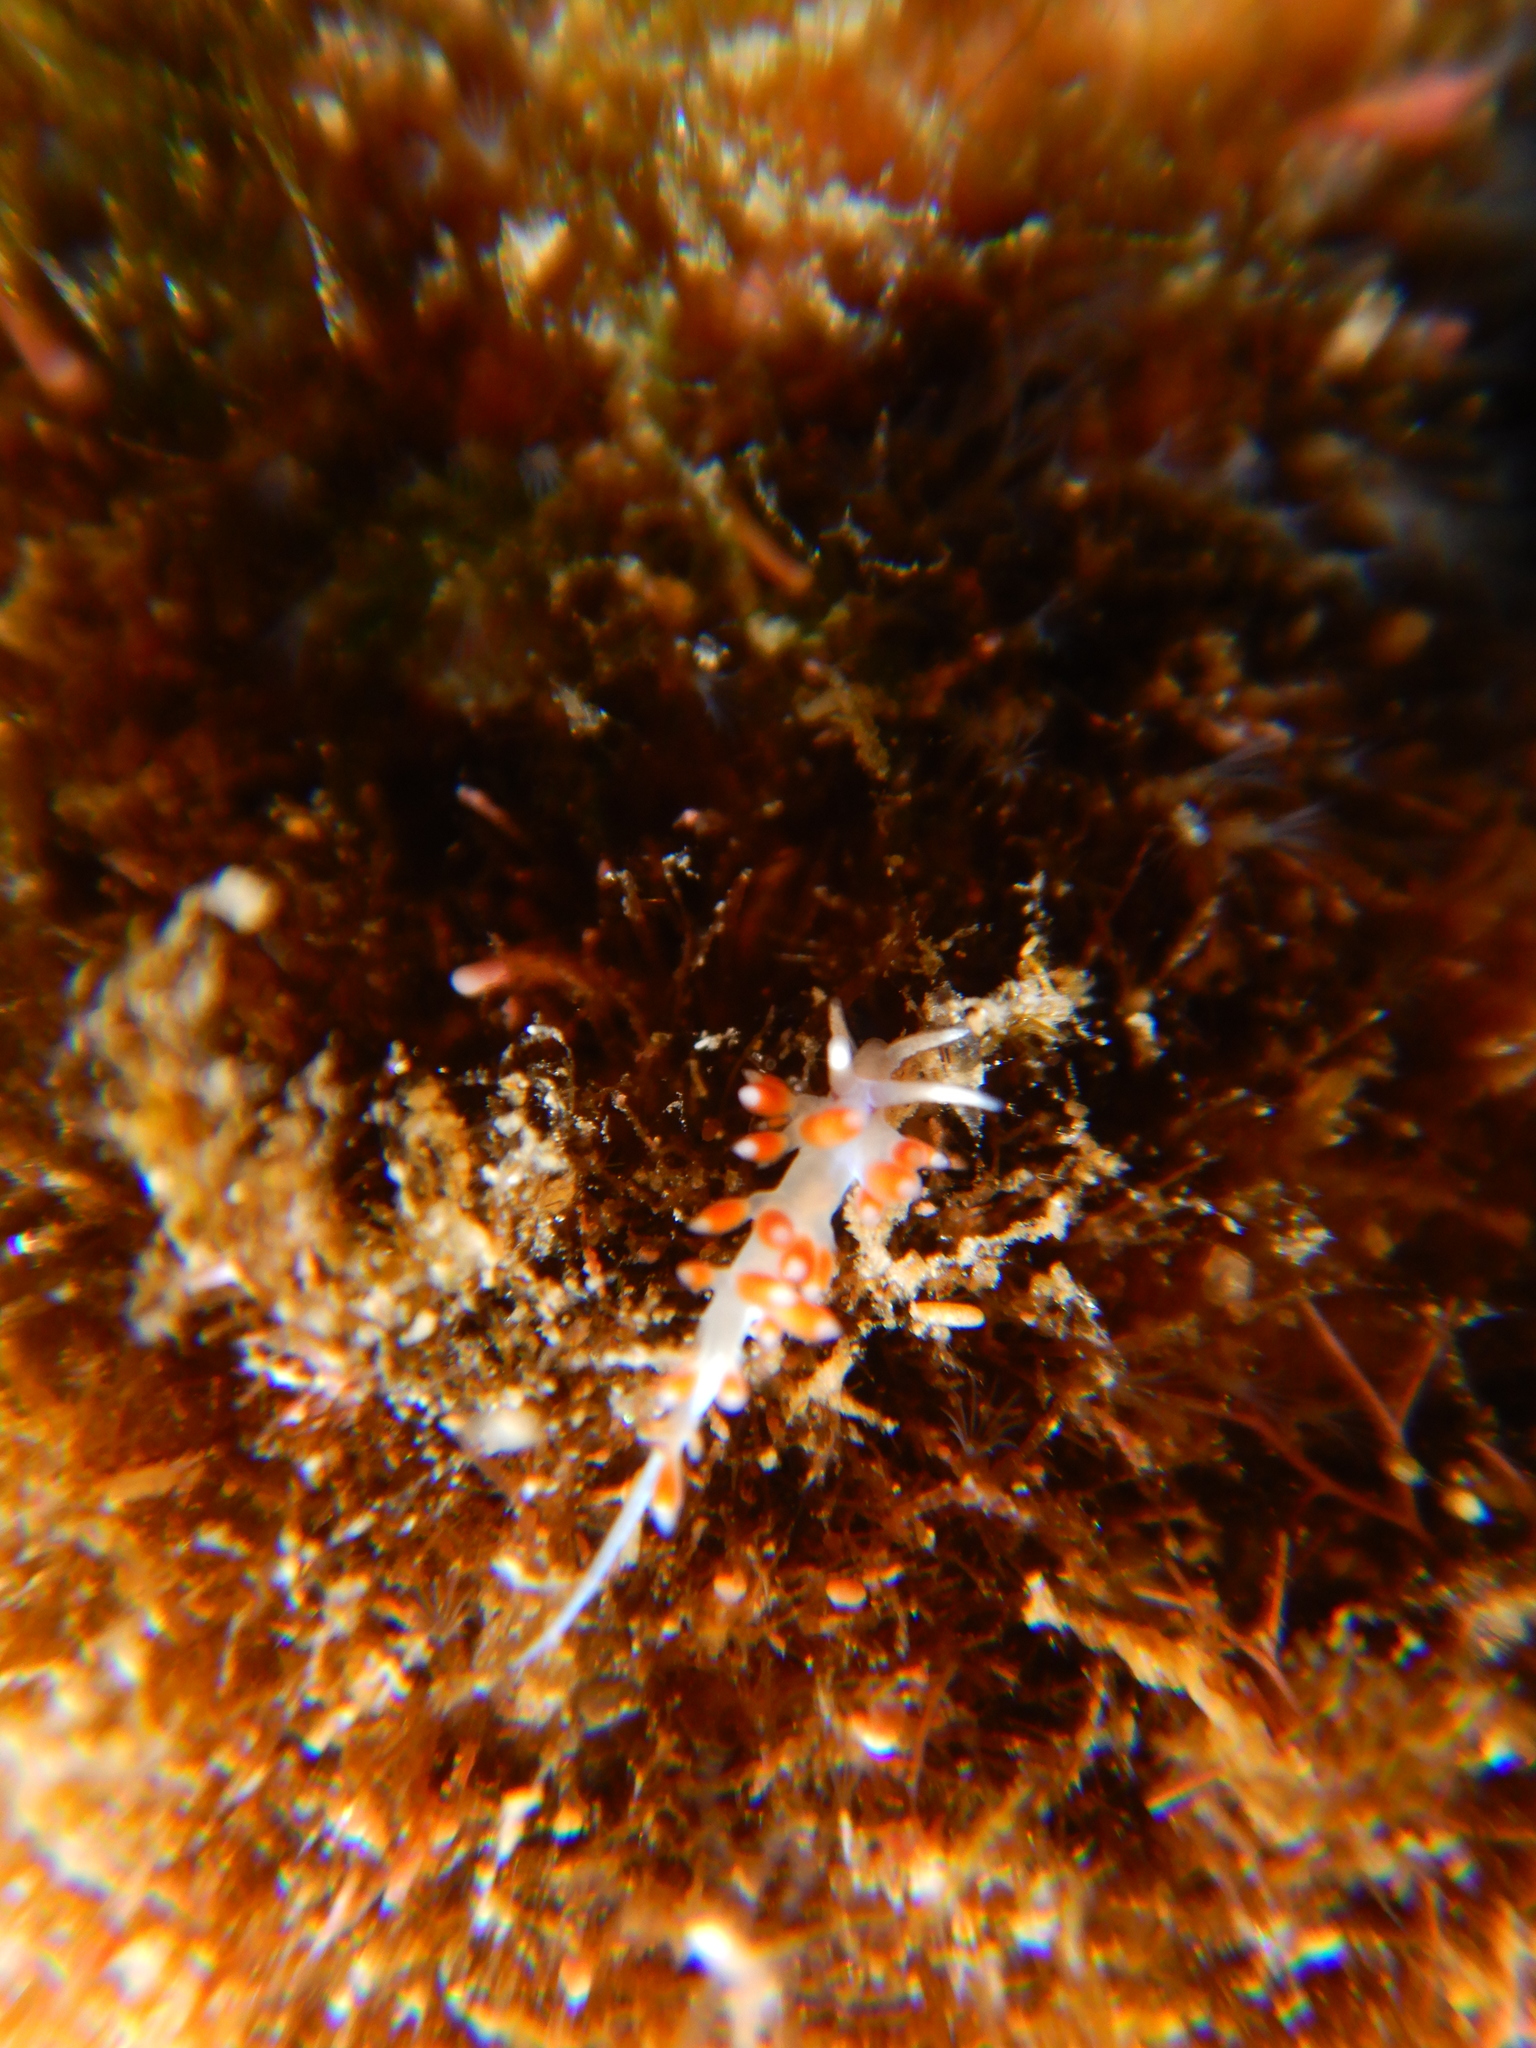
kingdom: Animalia
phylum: Mollusca
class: Gastropoda
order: Nudibranchia
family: Flabellinidae
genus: Calmella
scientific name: Calmella cavolini
